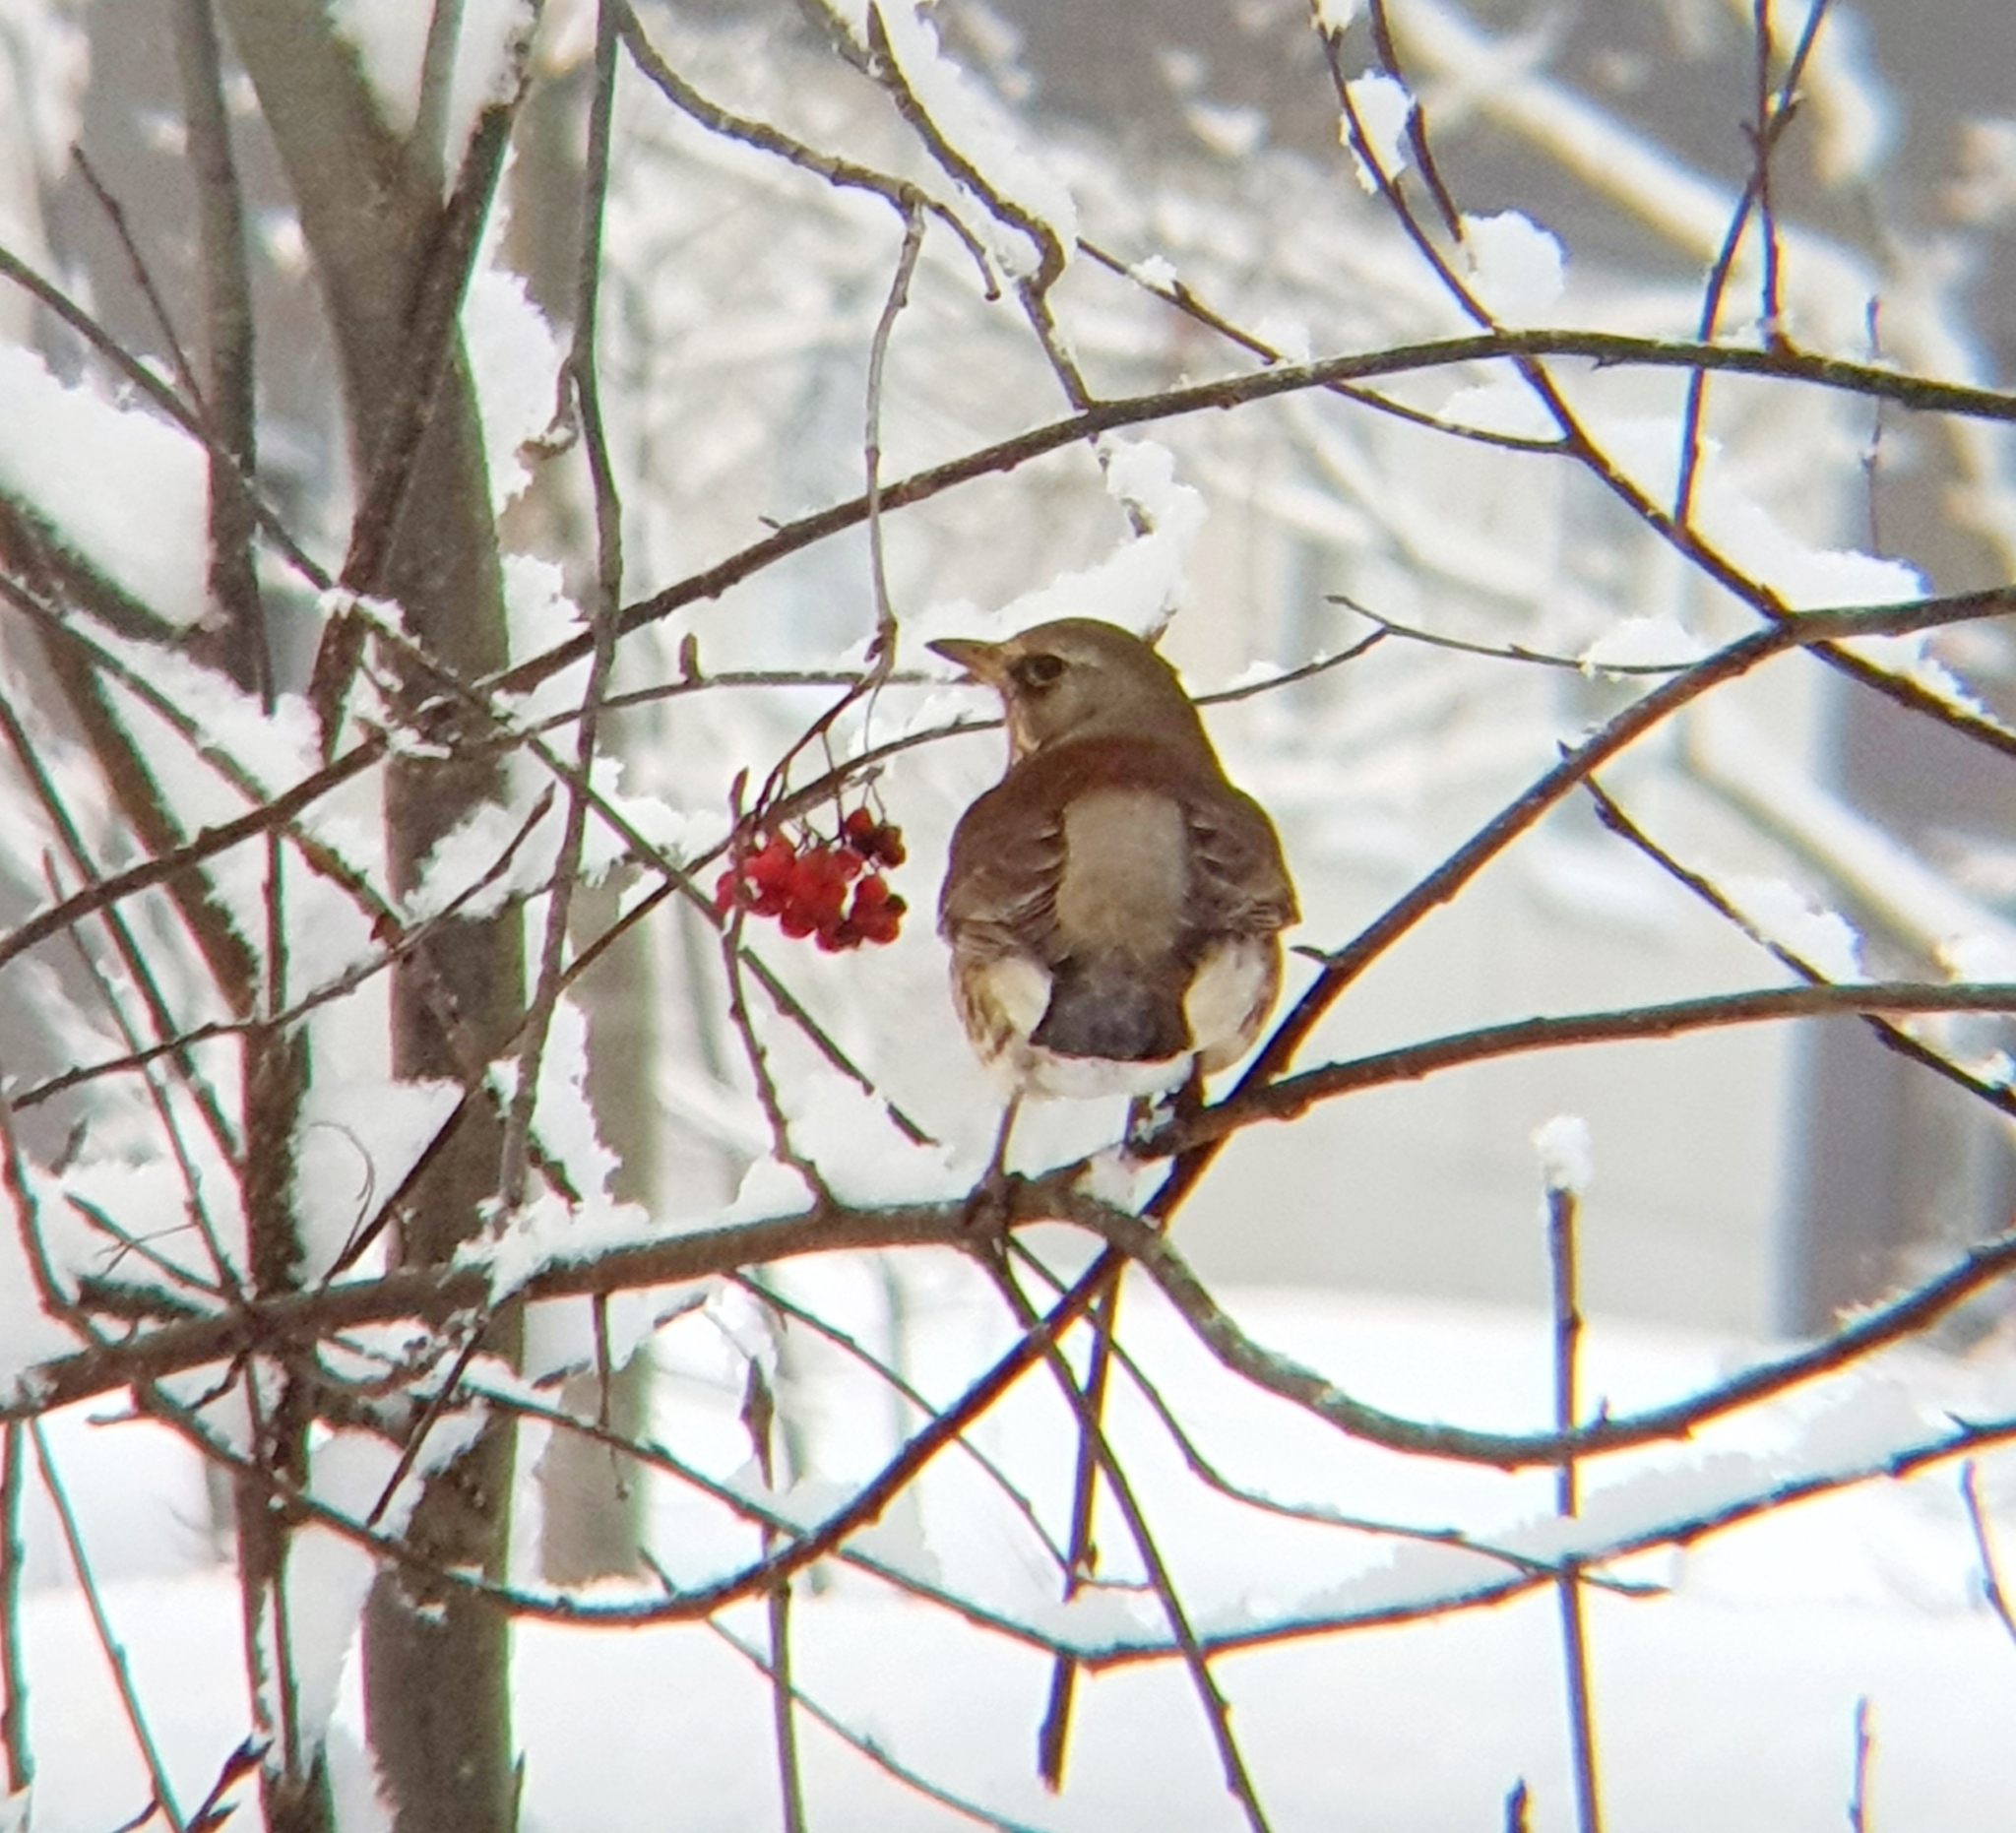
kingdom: Animalia
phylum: Chordata
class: Aves
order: Passeriformes
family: Turdidae
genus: Turdus
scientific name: Turdus pilaris
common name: Fieldfare
